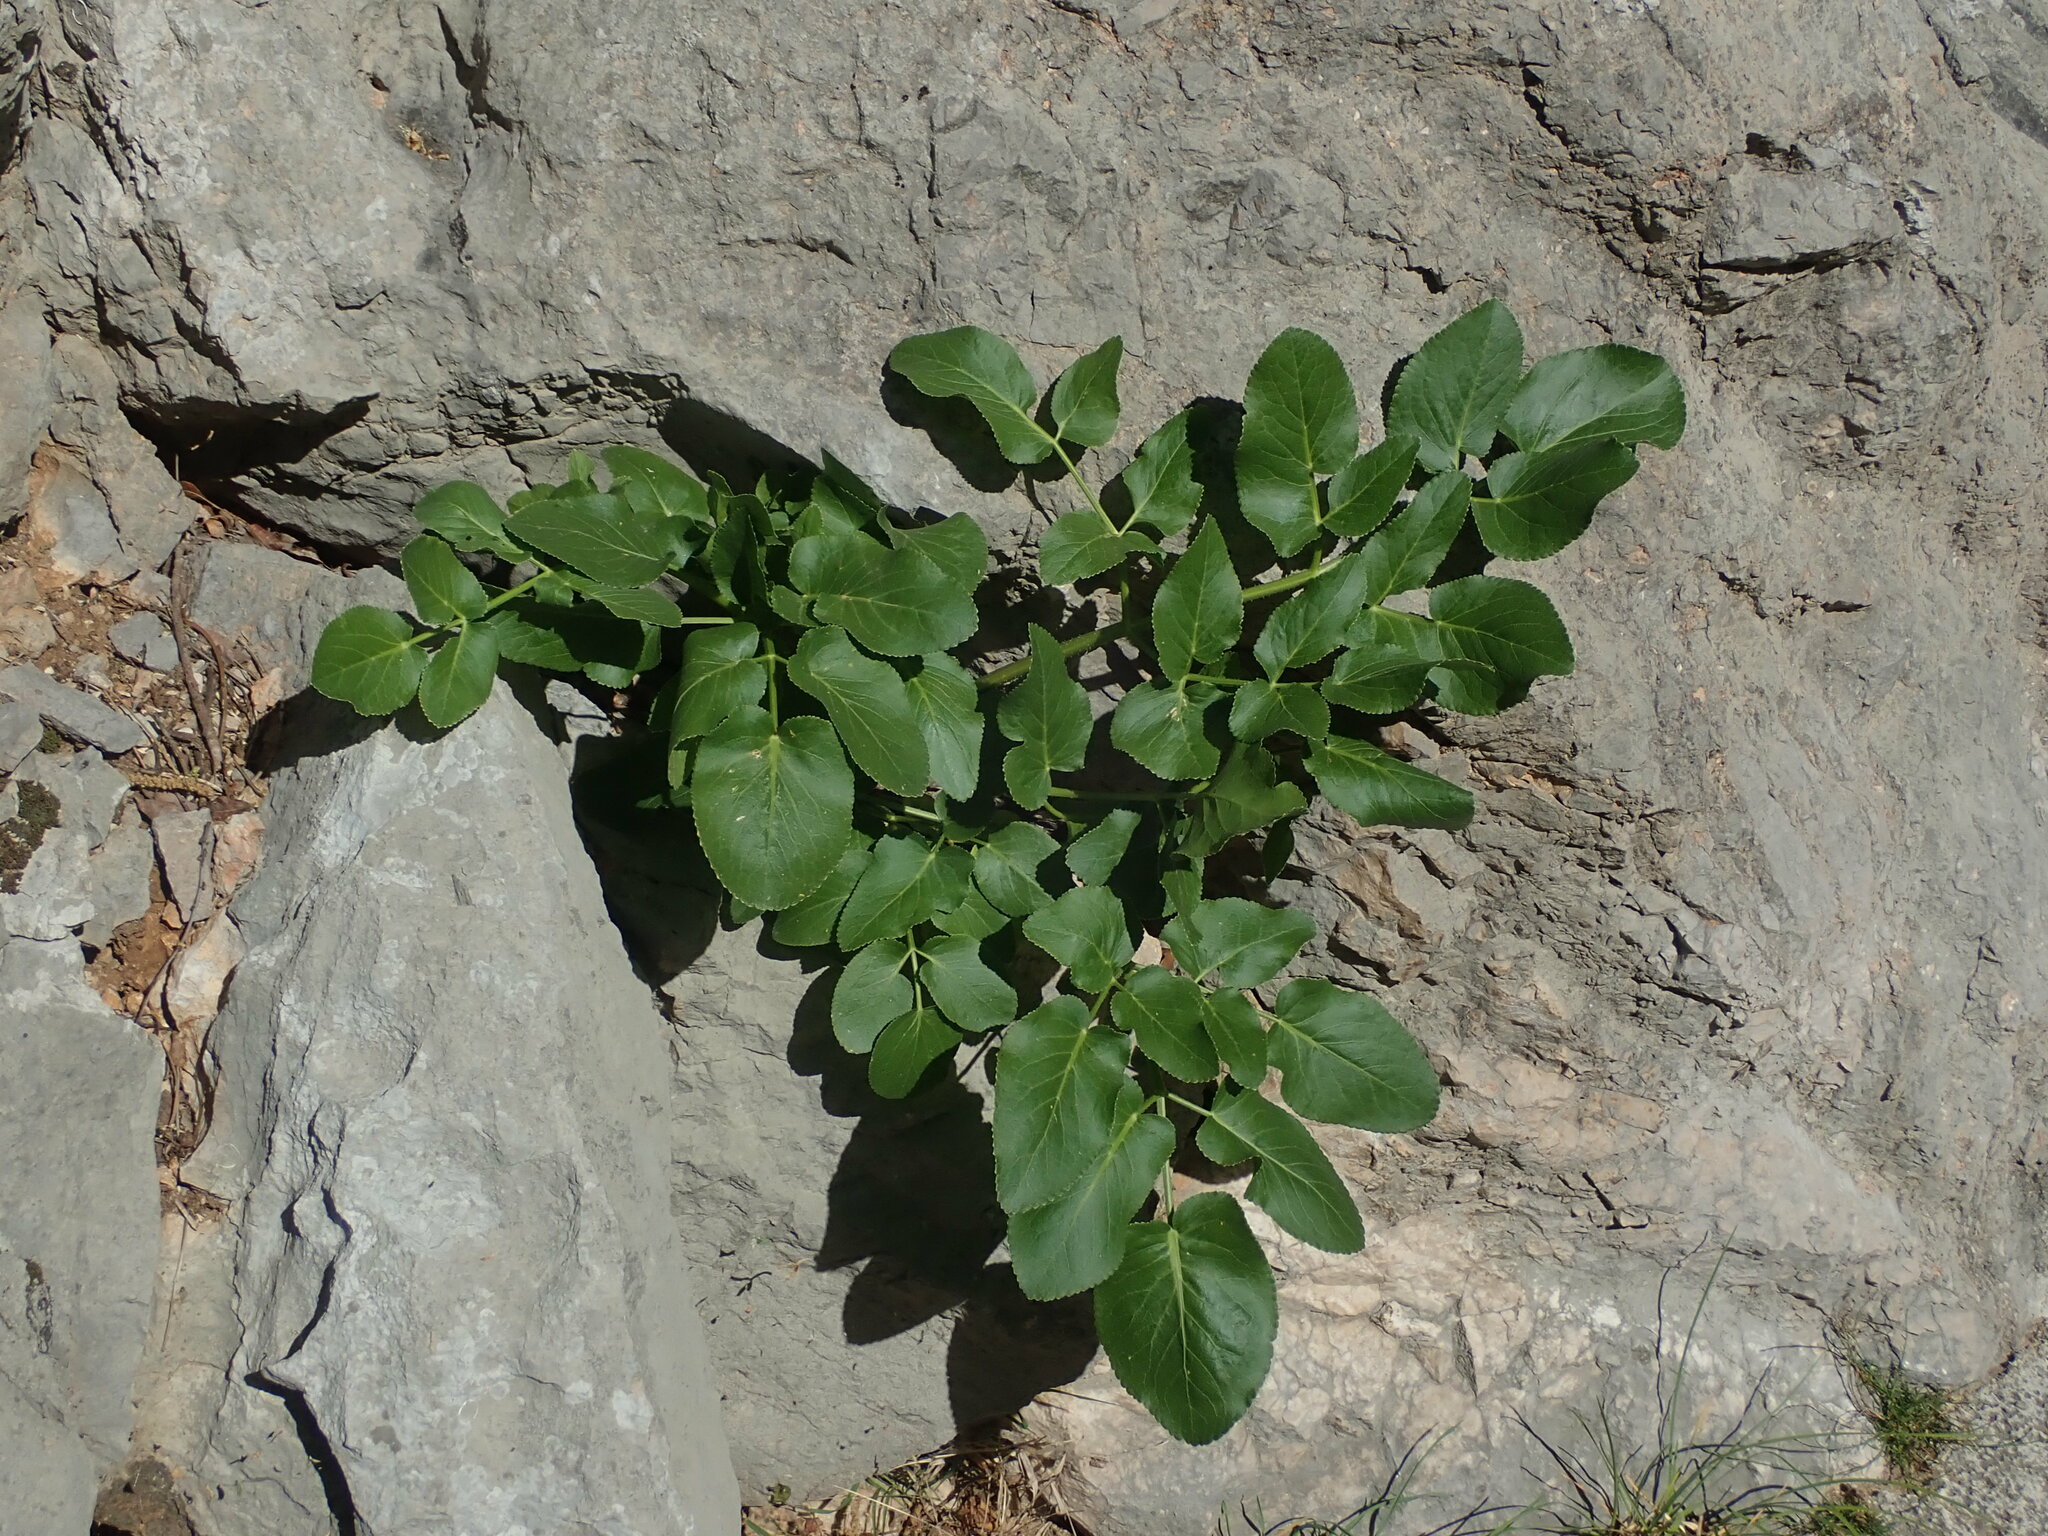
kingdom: Plantae
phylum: Tracheophyta
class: Magnoliopsida
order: Apiales
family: Apiaceae
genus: Opopanax
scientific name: Opopanax chironium
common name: Hercules-all-heal
